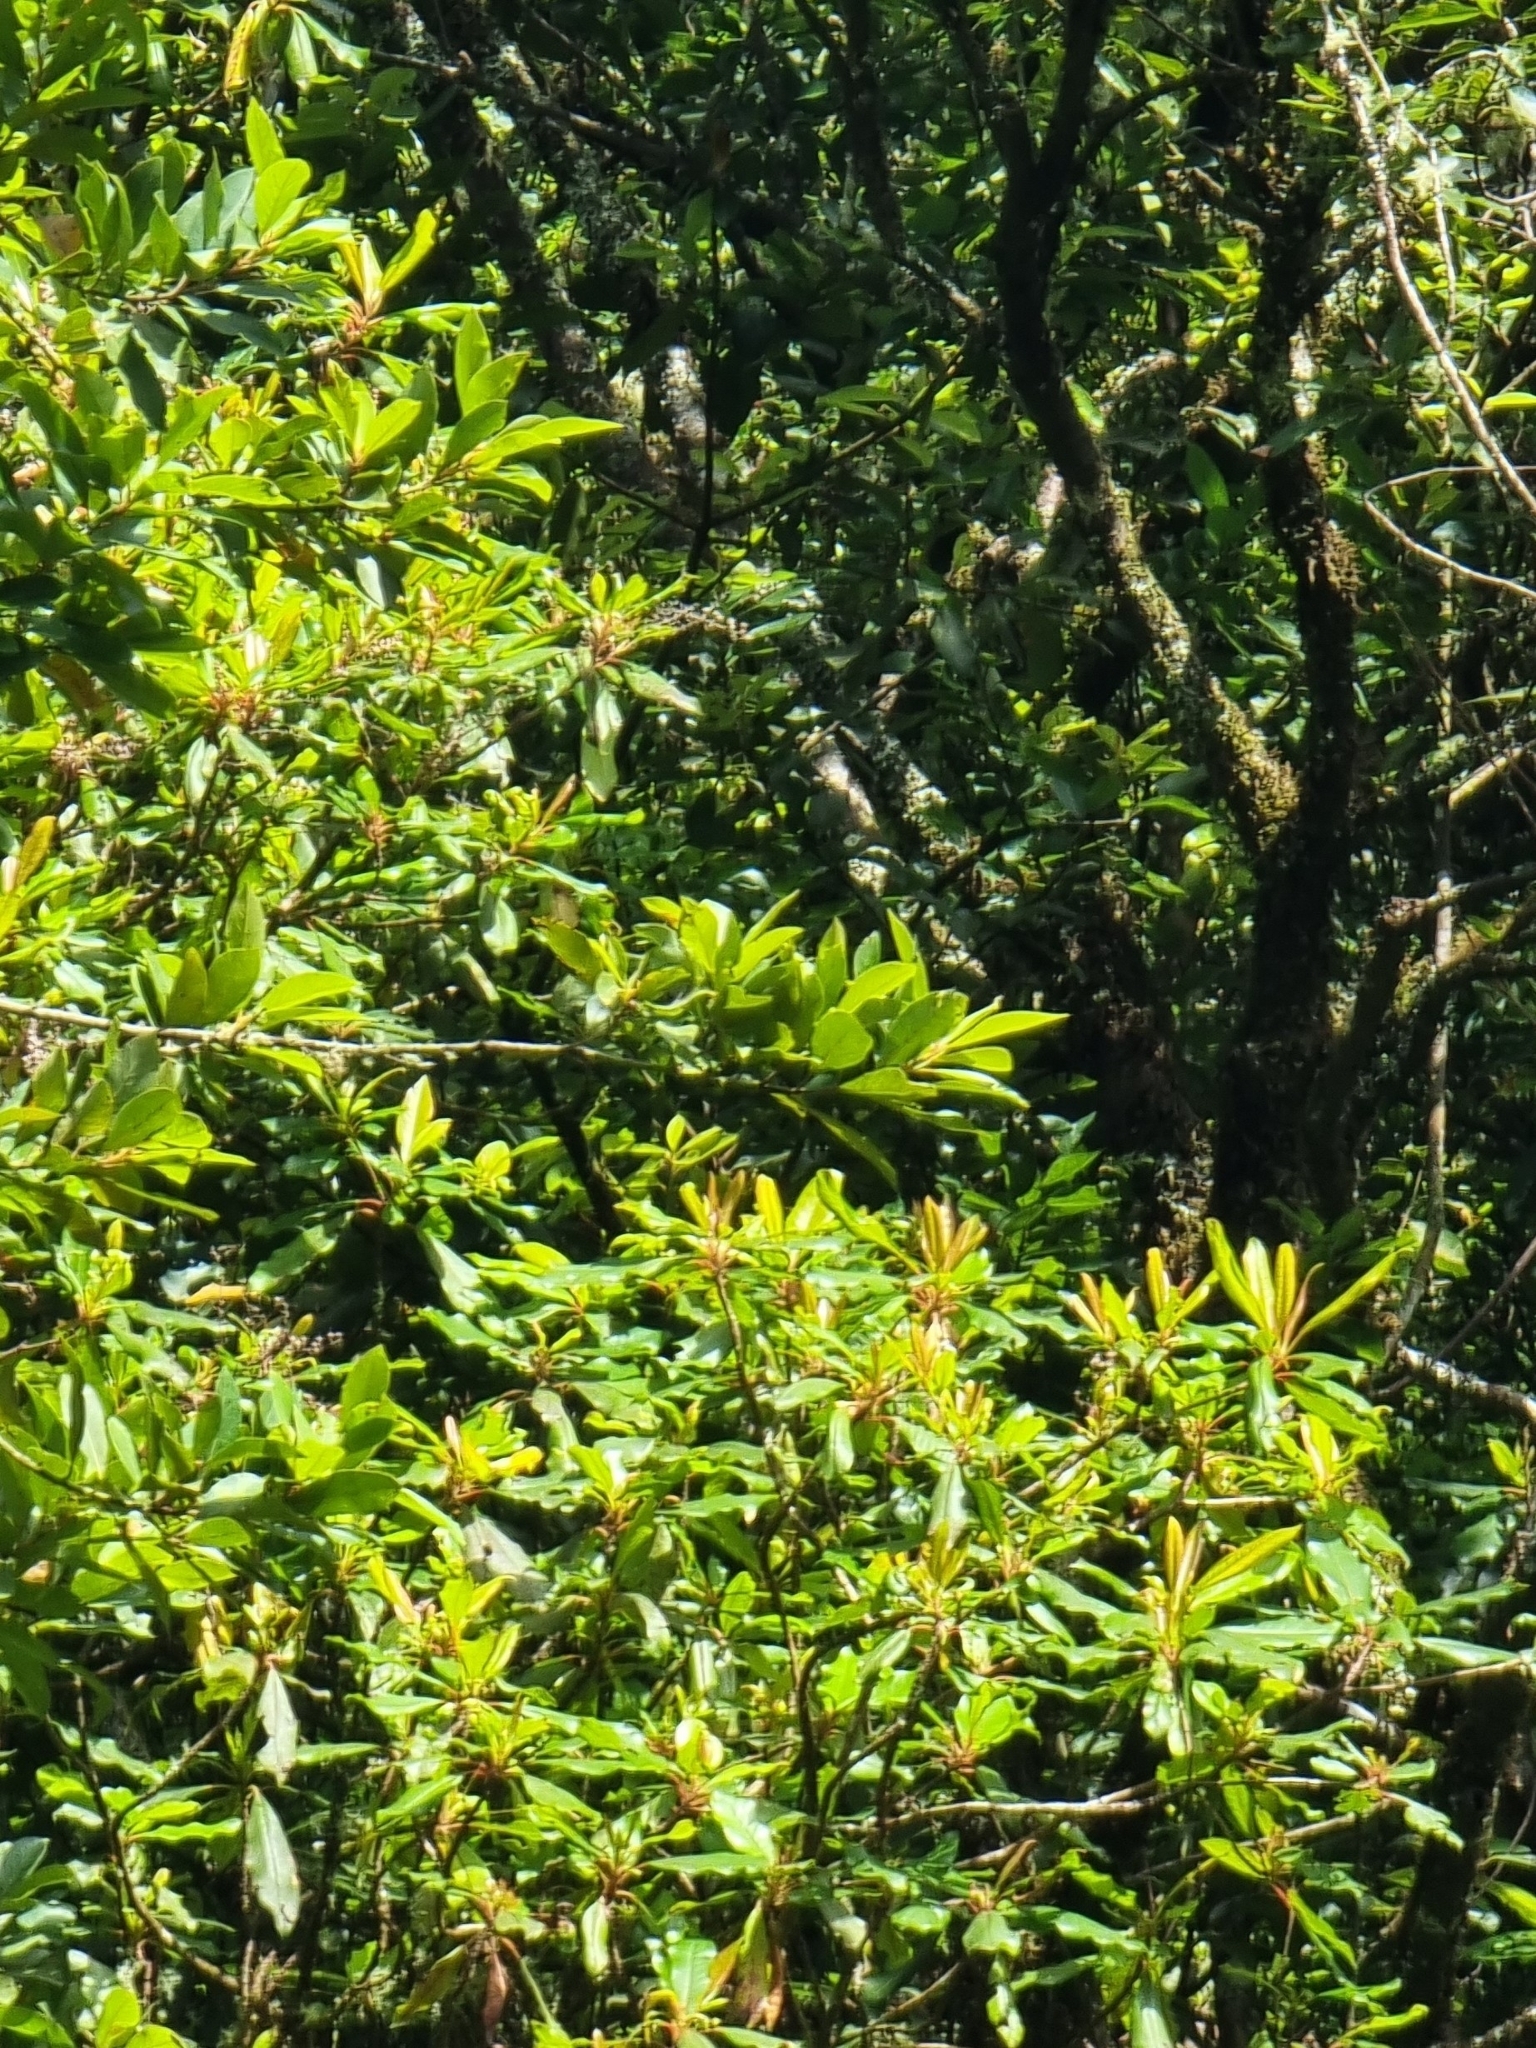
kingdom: Plantae
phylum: Tracheophyta
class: Magnoliopsida
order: Ericales
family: Clethraceae
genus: Clethra
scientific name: Clethra arborea
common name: Lily-of-the-valley-tree
